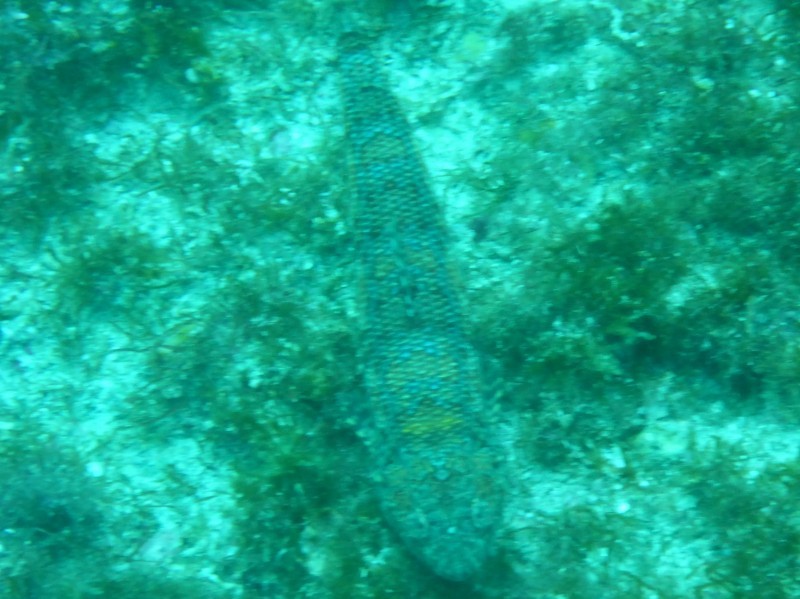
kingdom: Animalia
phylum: Chordata
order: Aulopiformes
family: Synodontidae
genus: Synodus
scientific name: Synodus lacertinus
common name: Calico lizardfish
